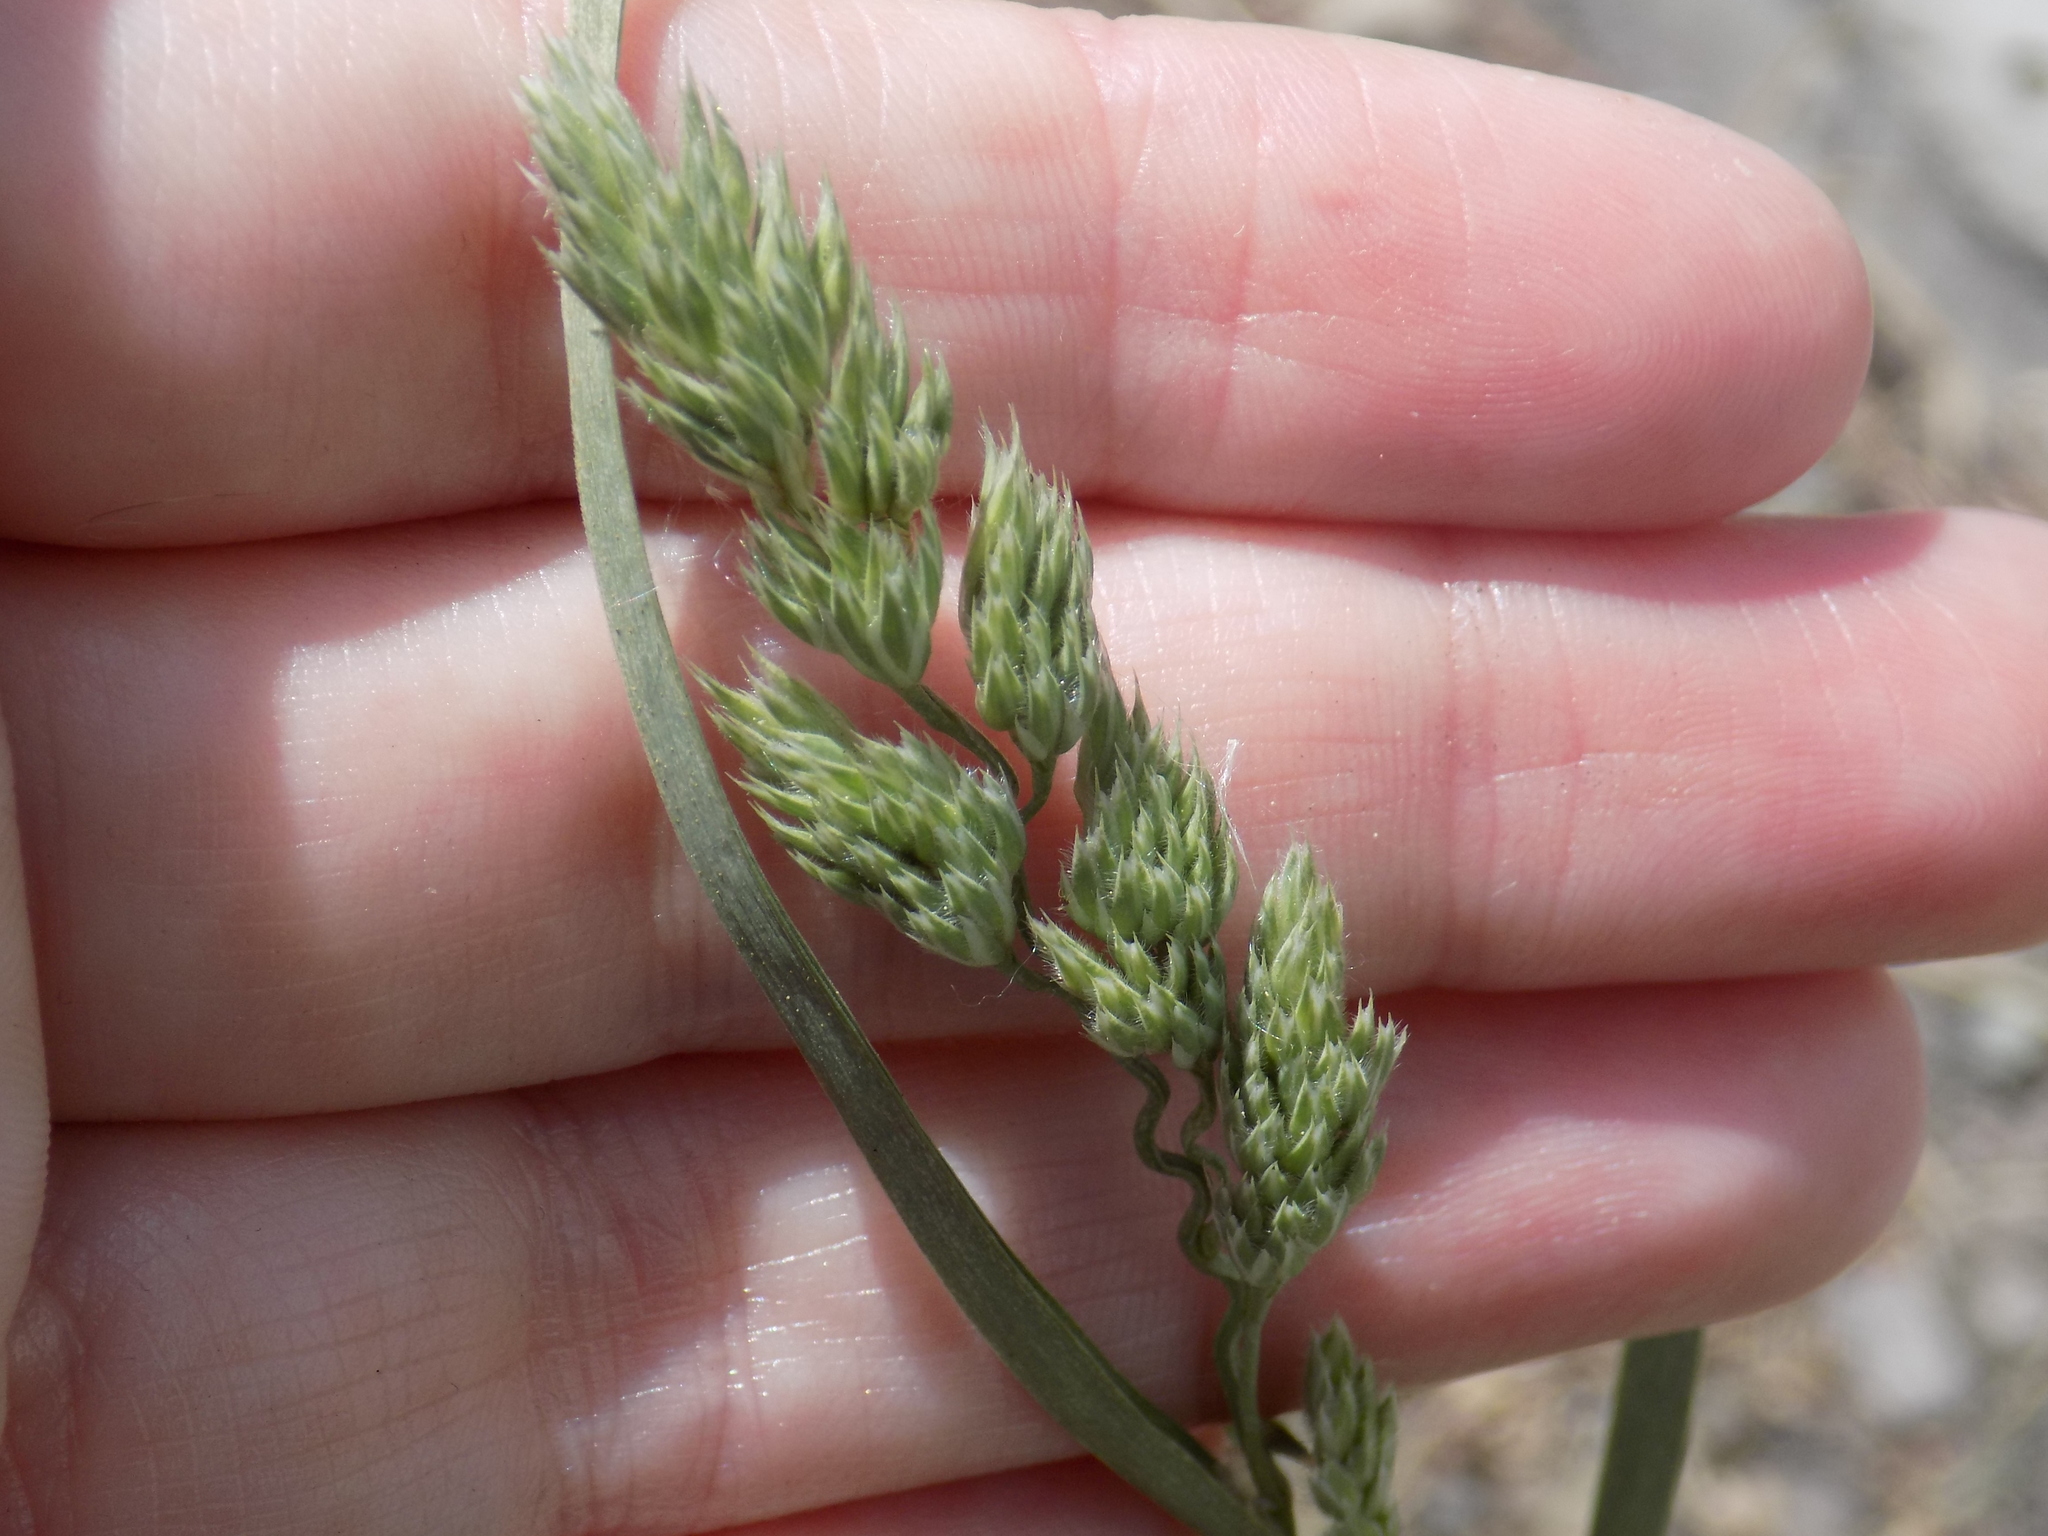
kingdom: Plantae
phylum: Tracheophyta
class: Liliopsida
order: Poales
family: Poaceae
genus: Dactylis
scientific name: Dactylis glomerata
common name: Orchardgrass
